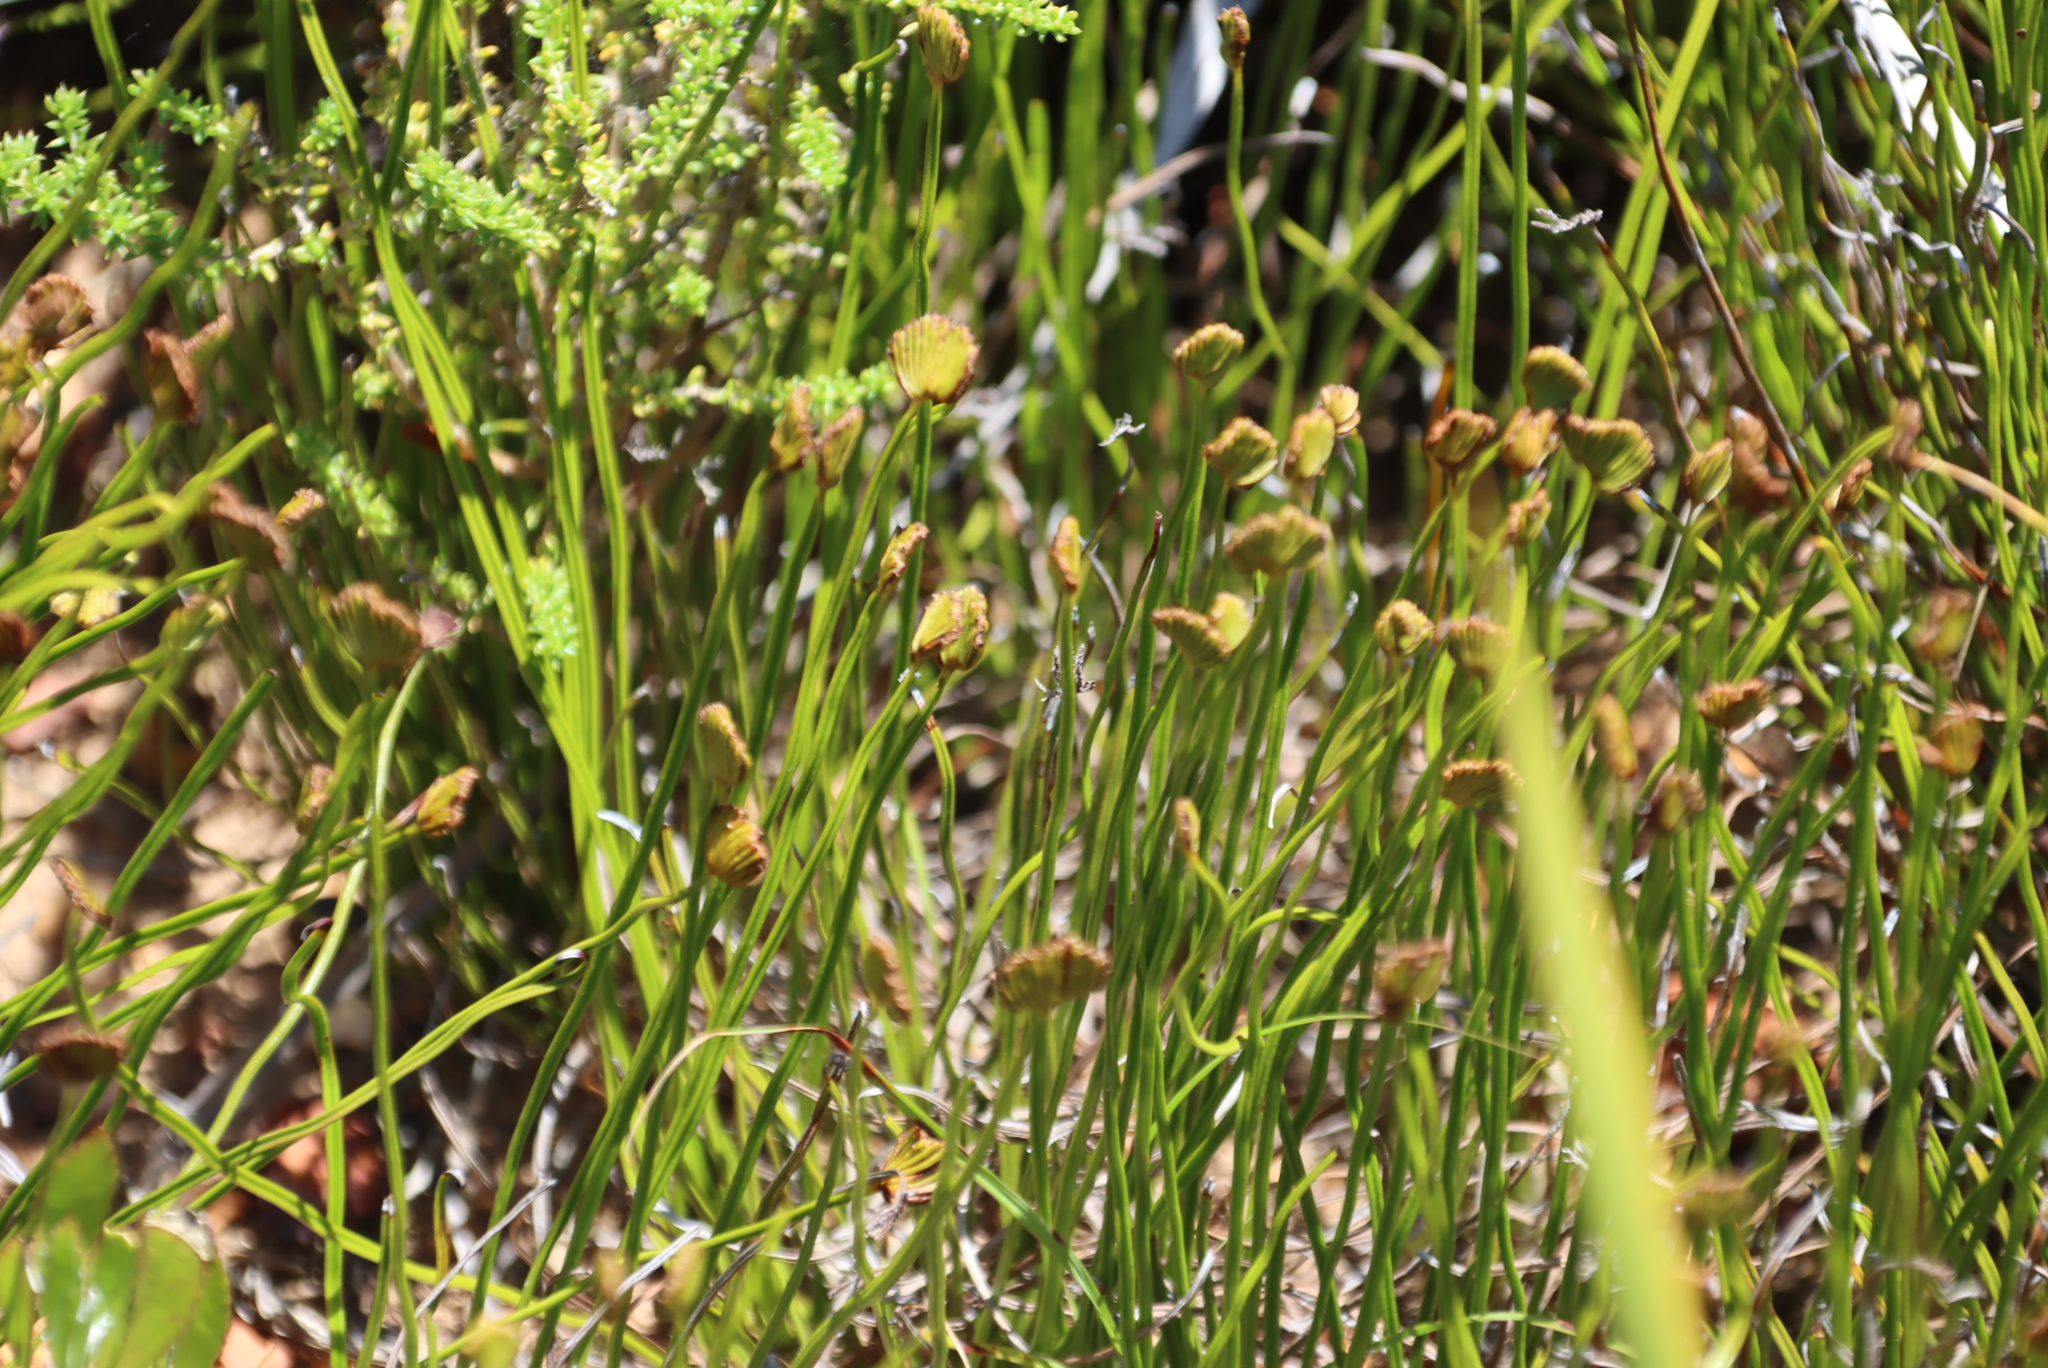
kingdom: Plantae
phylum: Tracheophyta
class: Polypodiopsida
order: Schizaeales
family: Schizaeaceae
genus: Schizaea
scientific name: Schizaea pectinata
